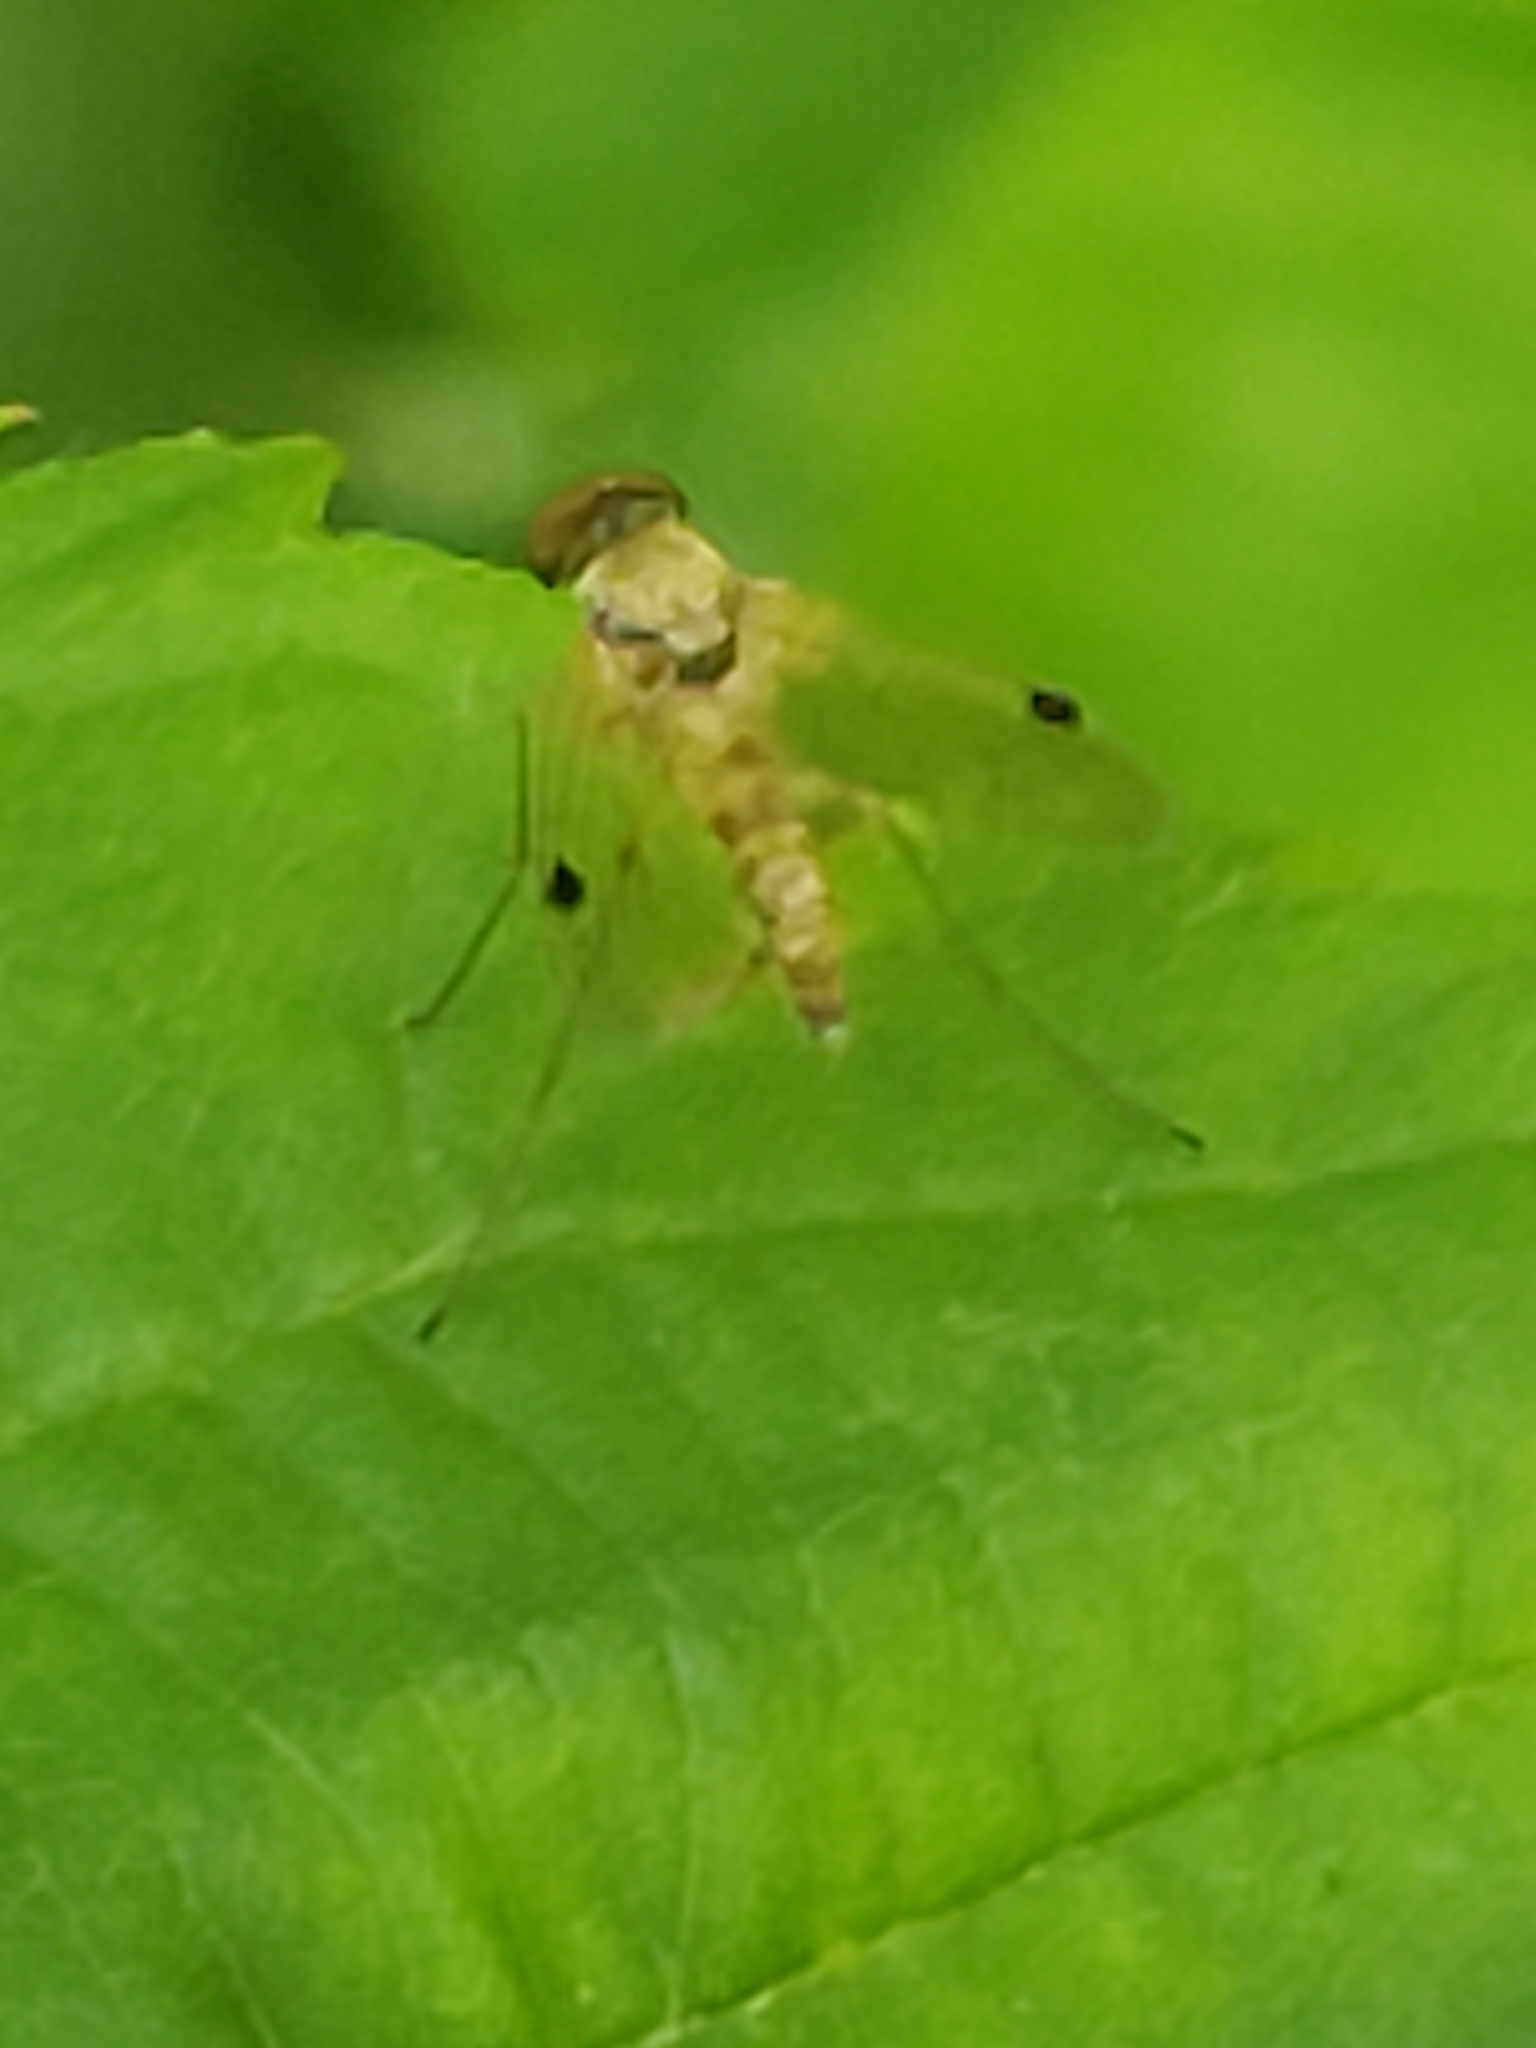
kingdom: Animalia
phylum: Arthropoda
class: Insecta
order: Diptera
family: Rhagionidae
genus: Chrysopilus
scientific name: Chrysopilus modestus
